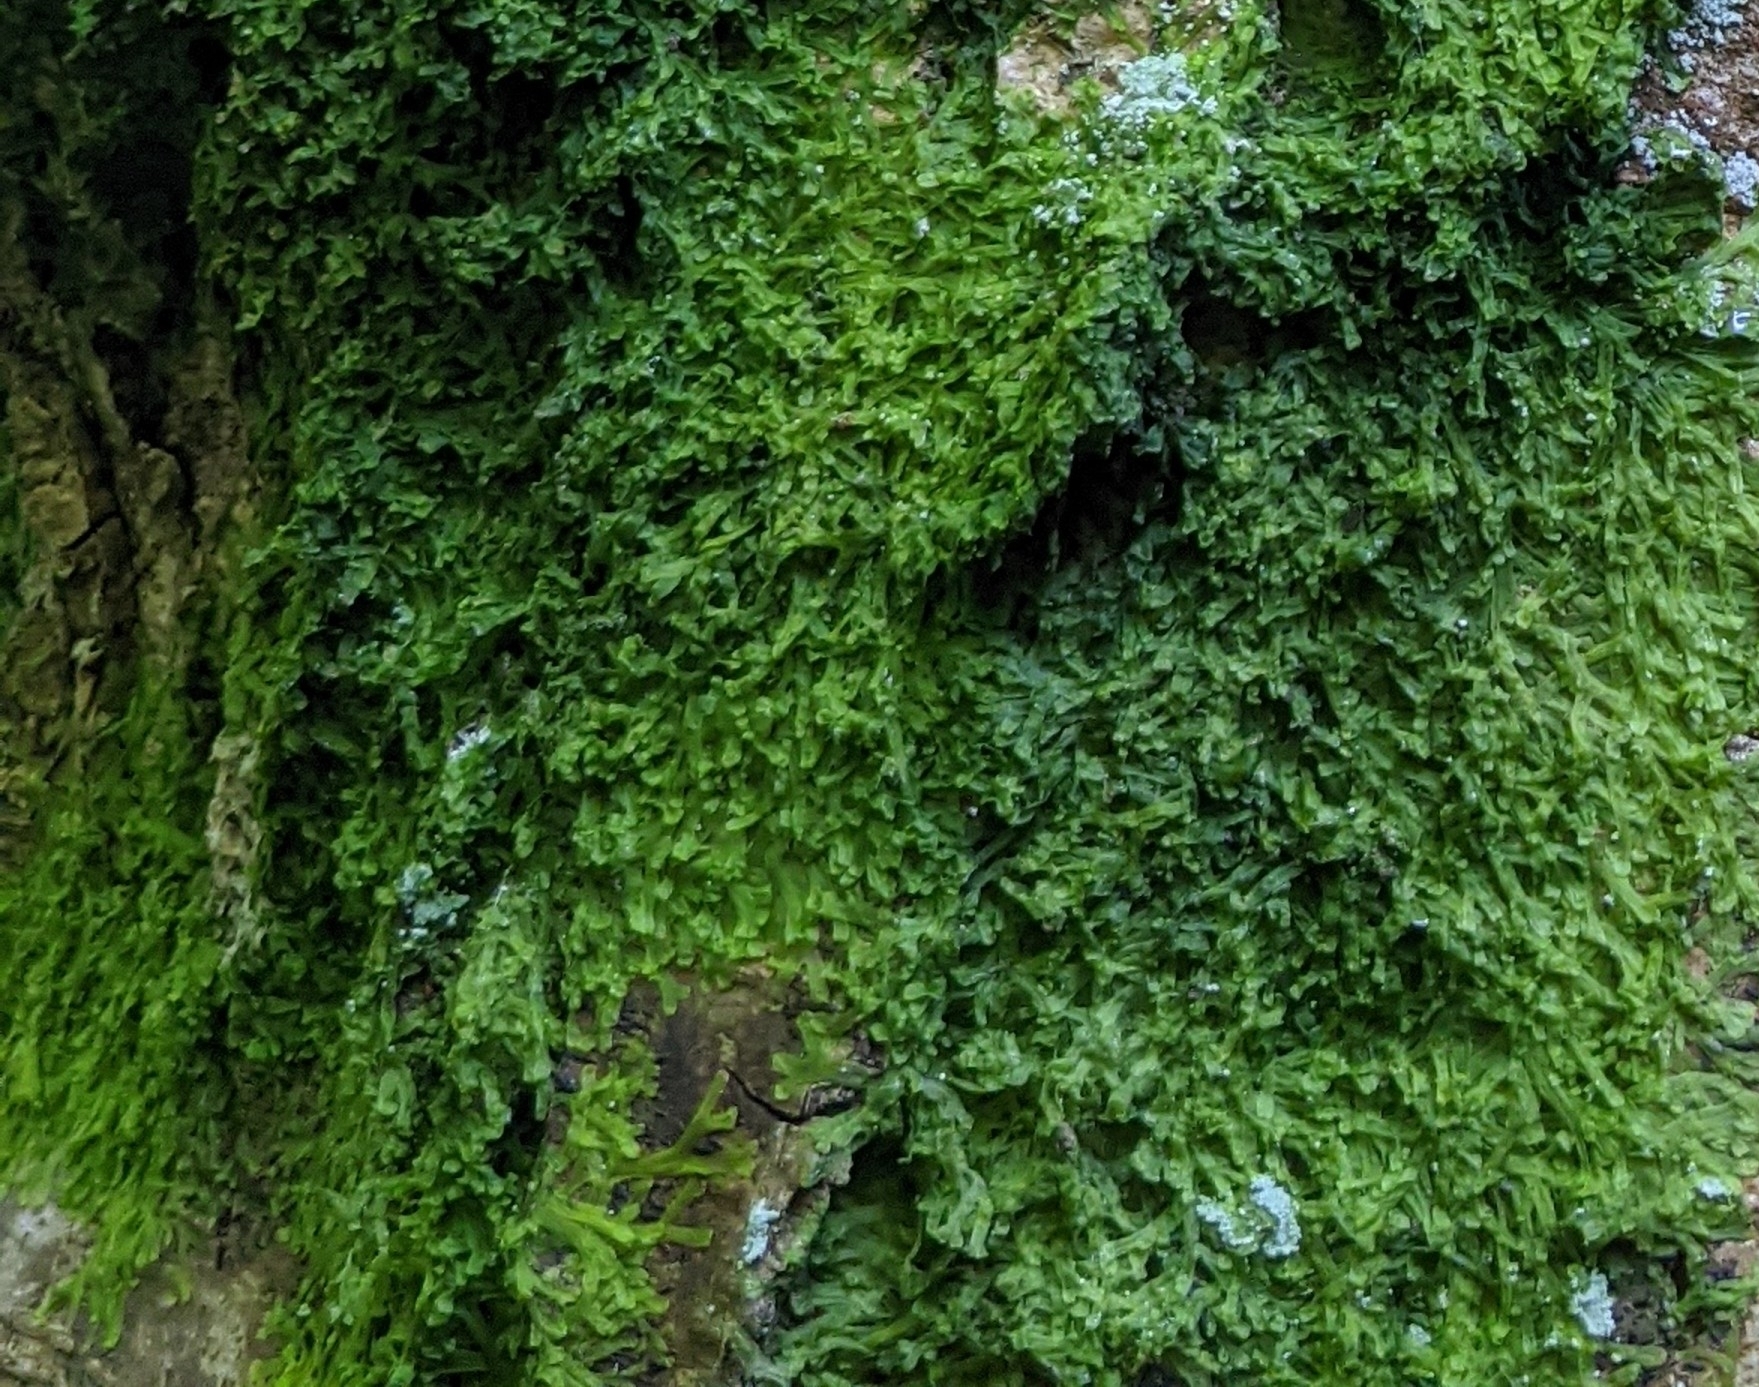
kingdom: Plantae
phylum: Marchantiophyta
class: Jungermanniopsida
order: Metzgeriales
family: Metzgeriaceae
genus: Metzgeria
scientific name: Metzgeria furcata
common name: Forked veilwort
